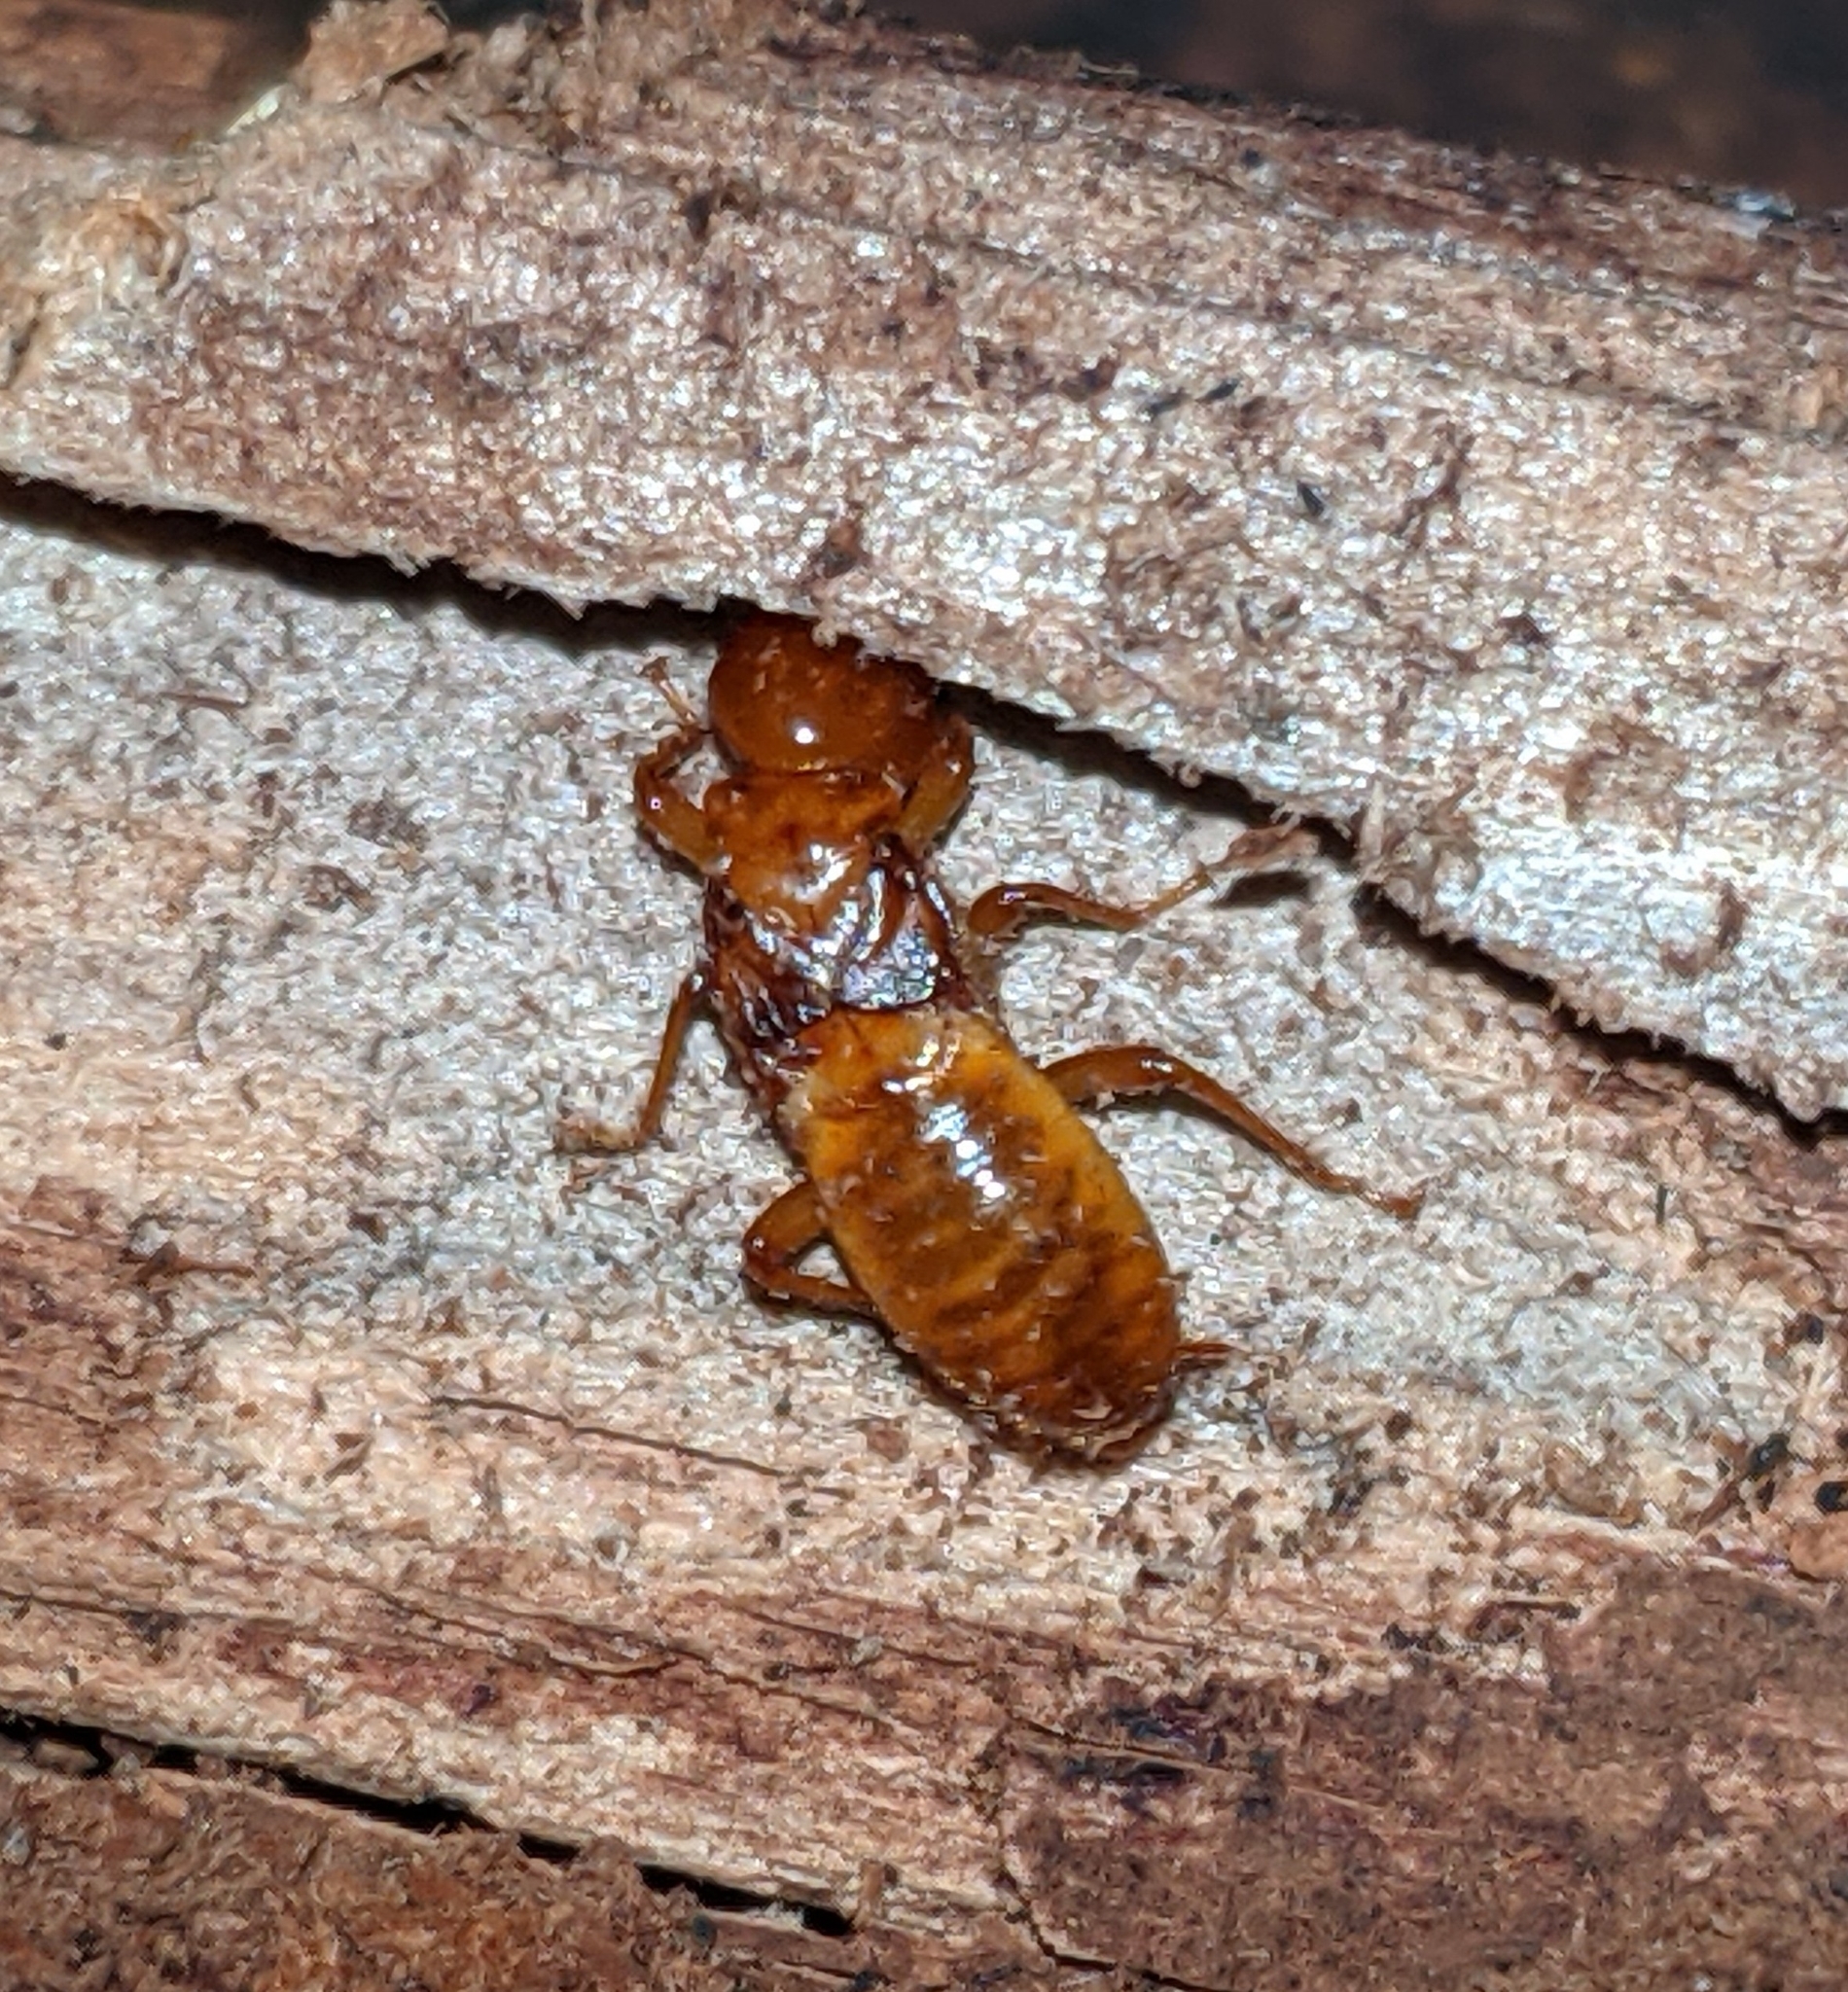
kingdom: Animalia
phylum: Arthropoda
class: Insecta
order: Blattodea
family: Archotermopsidae
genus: Zootermopsis
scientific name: Zootermopsis angusticollis
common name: Rottenwood termite
